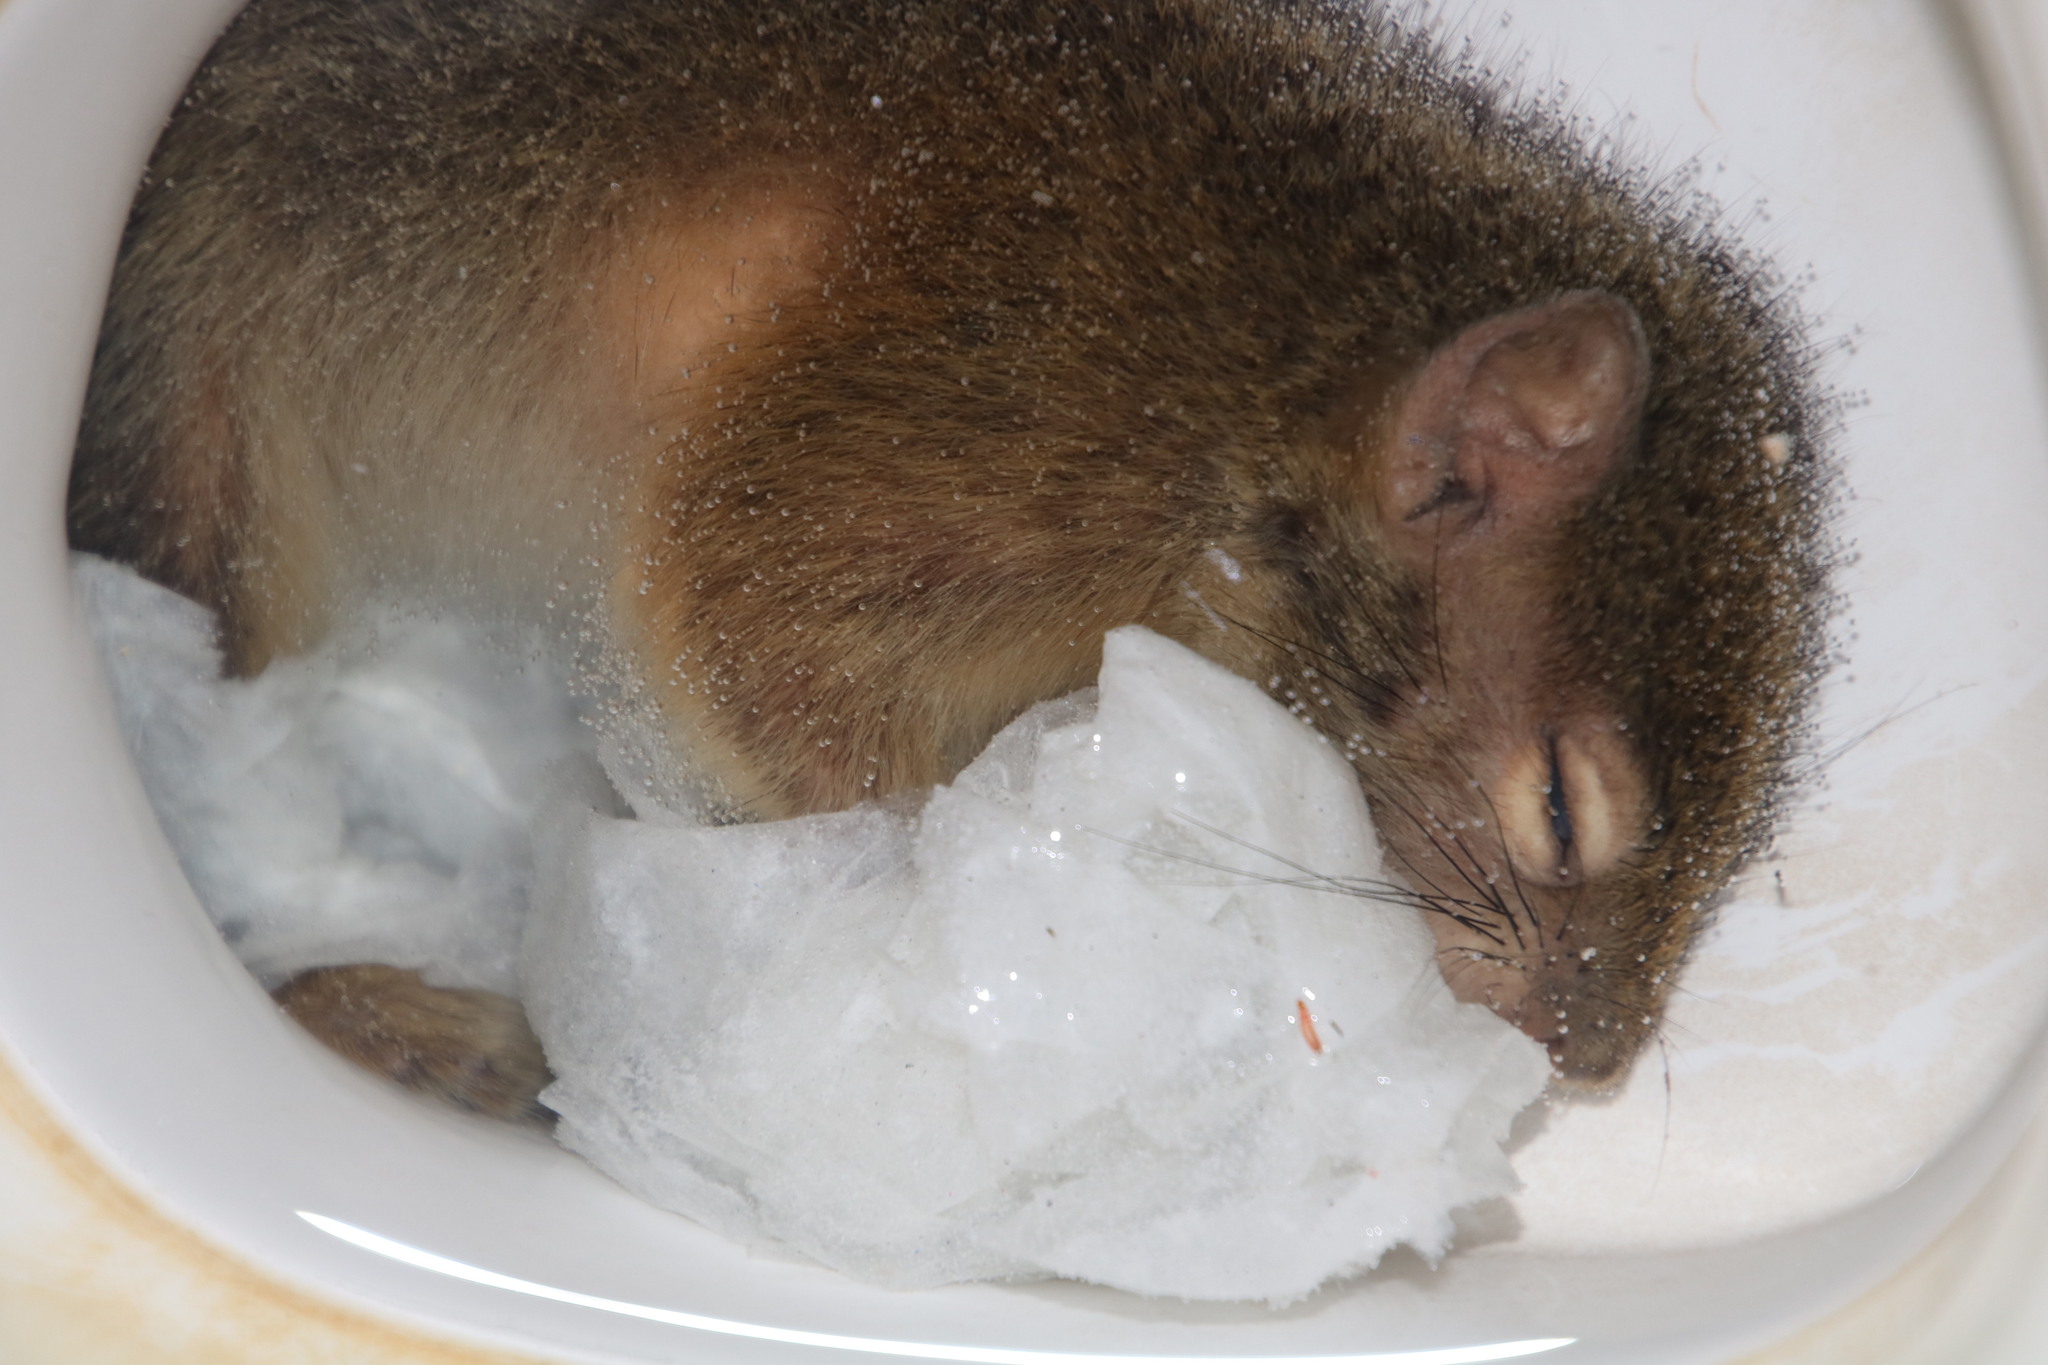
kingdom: Animalia
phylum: Chordata
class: Mammalia
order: Rodentia
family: Sciuridae
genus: Paraxerus
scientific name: Paraxerus cepapi
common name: Smith's bush squirrel
